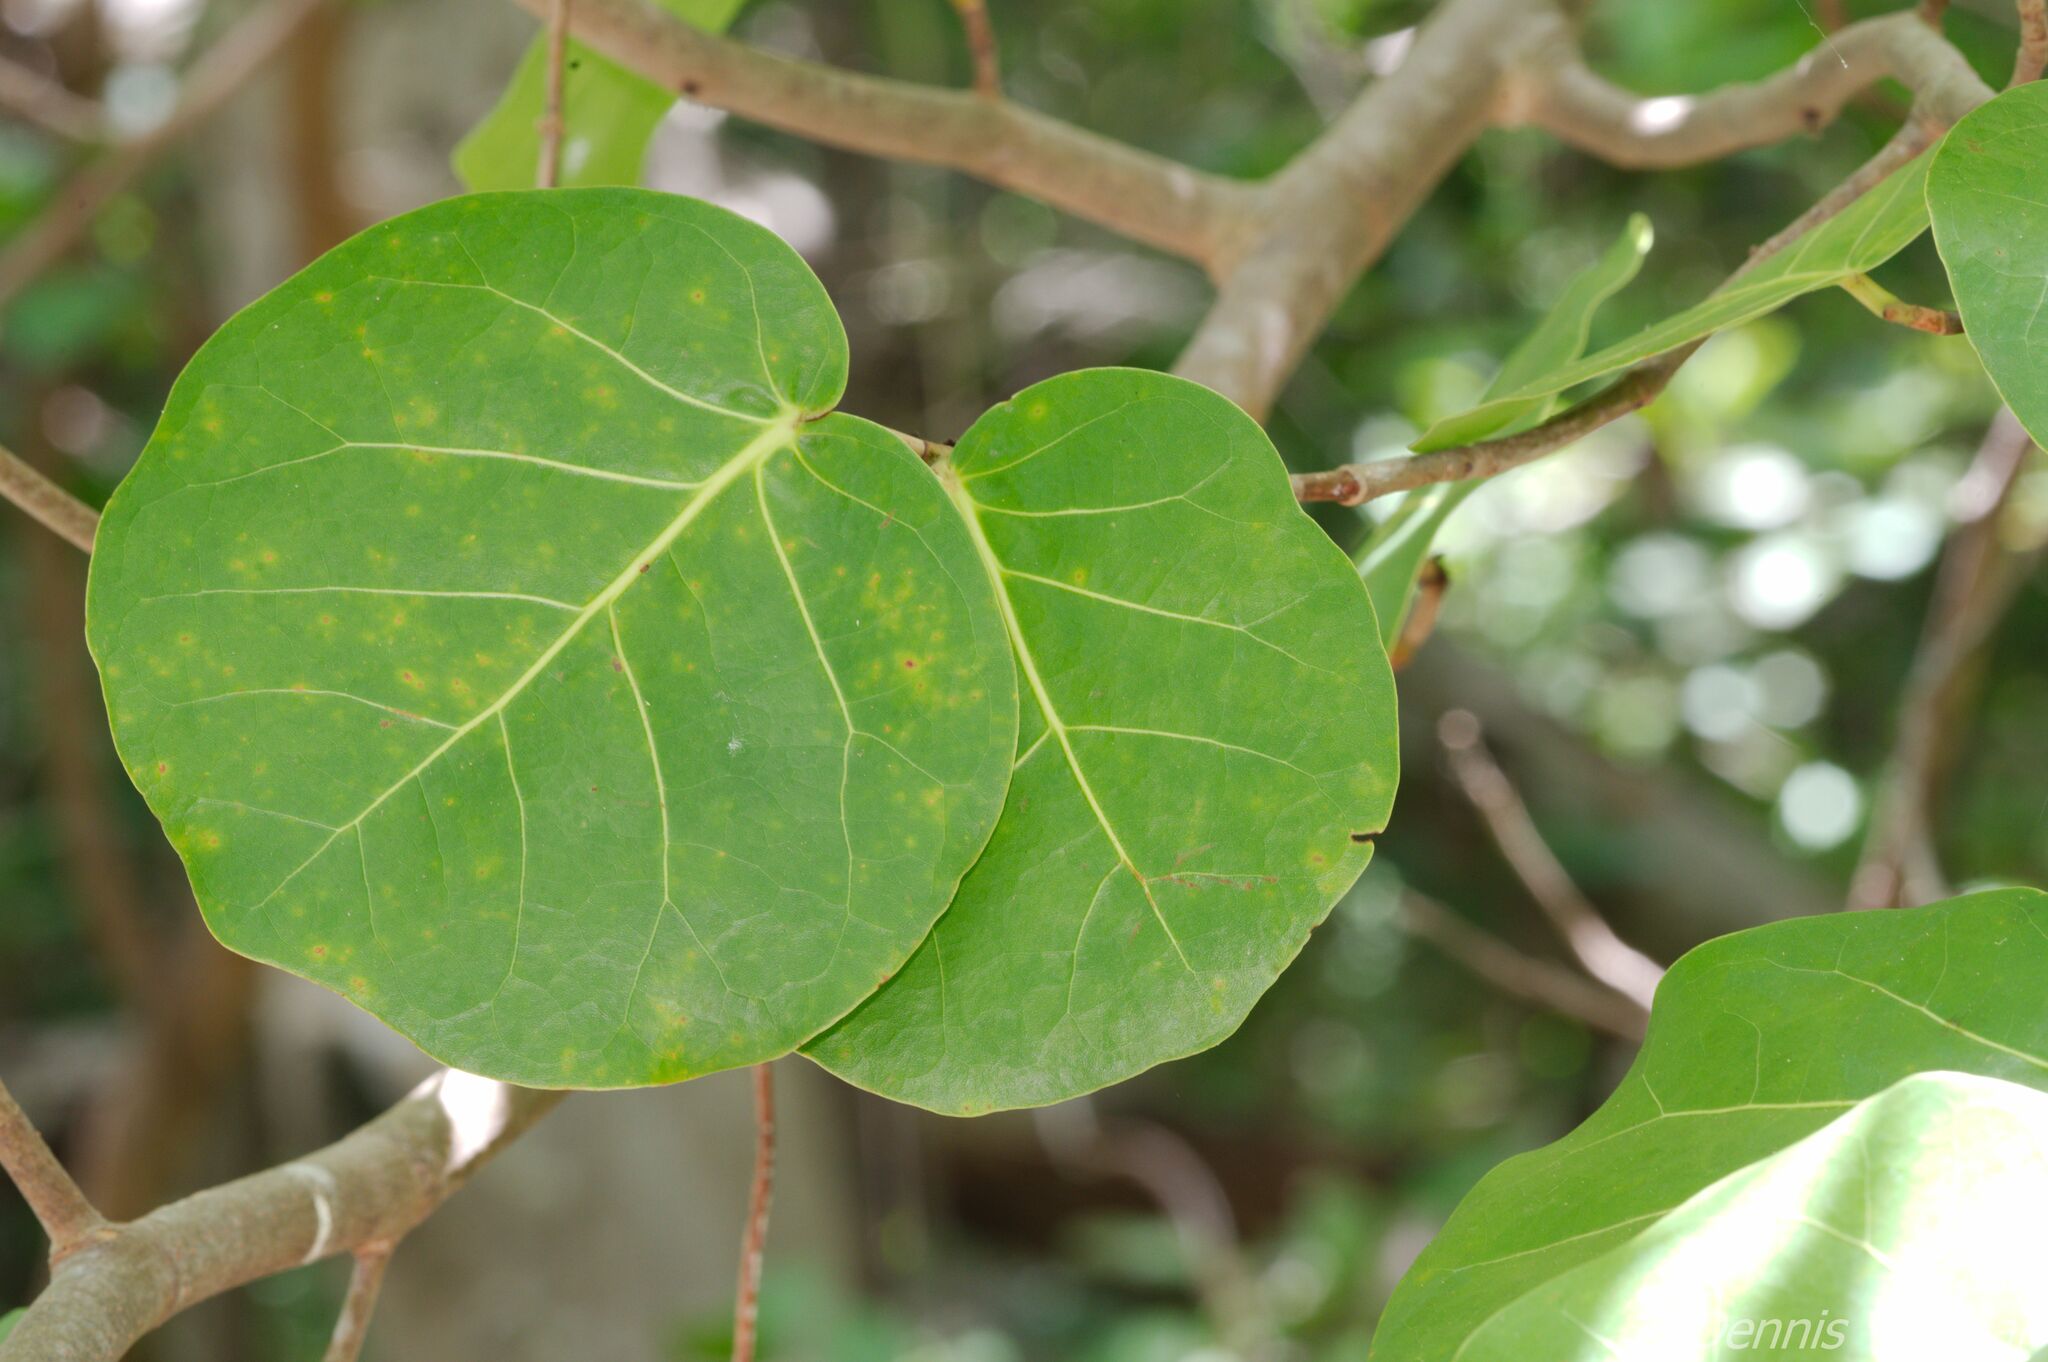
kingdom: Plantae
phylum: Tracheophyta
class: Magnoliopsida
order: Caryophyllales
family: Polygonaceae
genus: Coccoloba
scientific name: Coccoloba uvifera
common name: Seagrape
